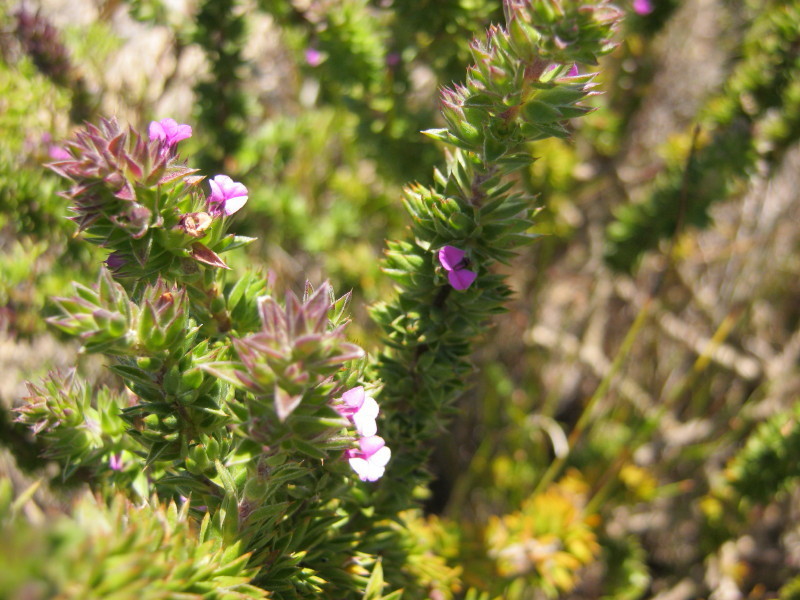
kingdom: Plantae
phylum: Tracheophyta
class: Magnoliopsida
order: Fabales
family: Polygalaceae
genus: Muraltia
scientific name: Muraltia squarrosa
